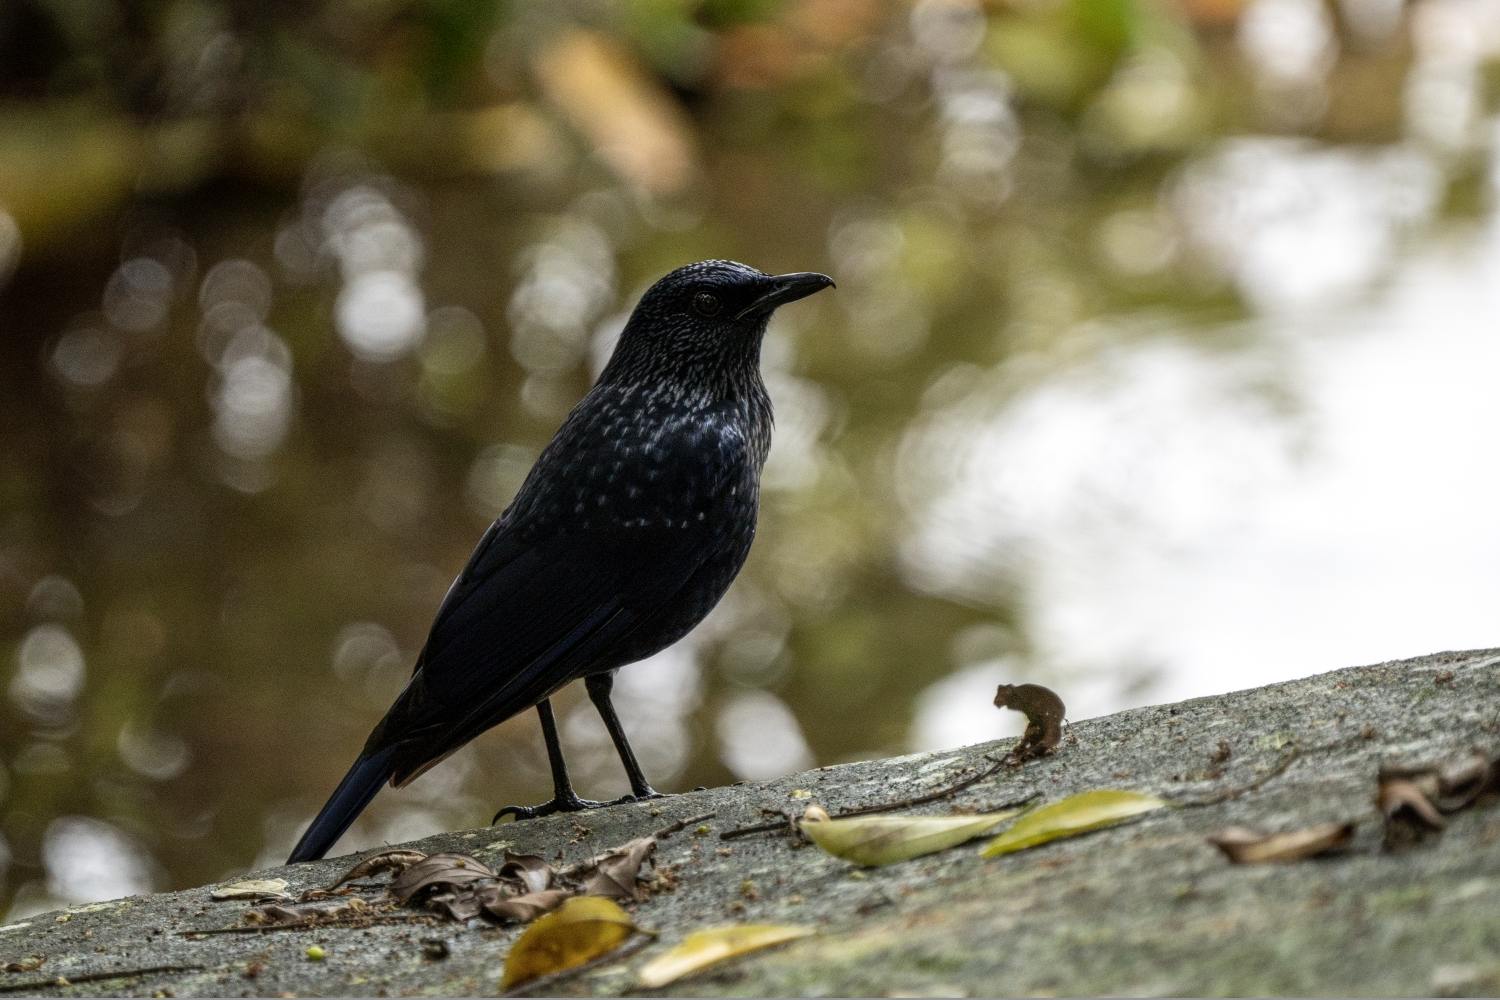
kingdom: Animalia
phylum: Chordata
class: Aves
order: Passeriformes
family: Muscicapidae
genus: Myophonus
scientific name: Myophonus caeruleus
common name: Blue whistling-thrush
